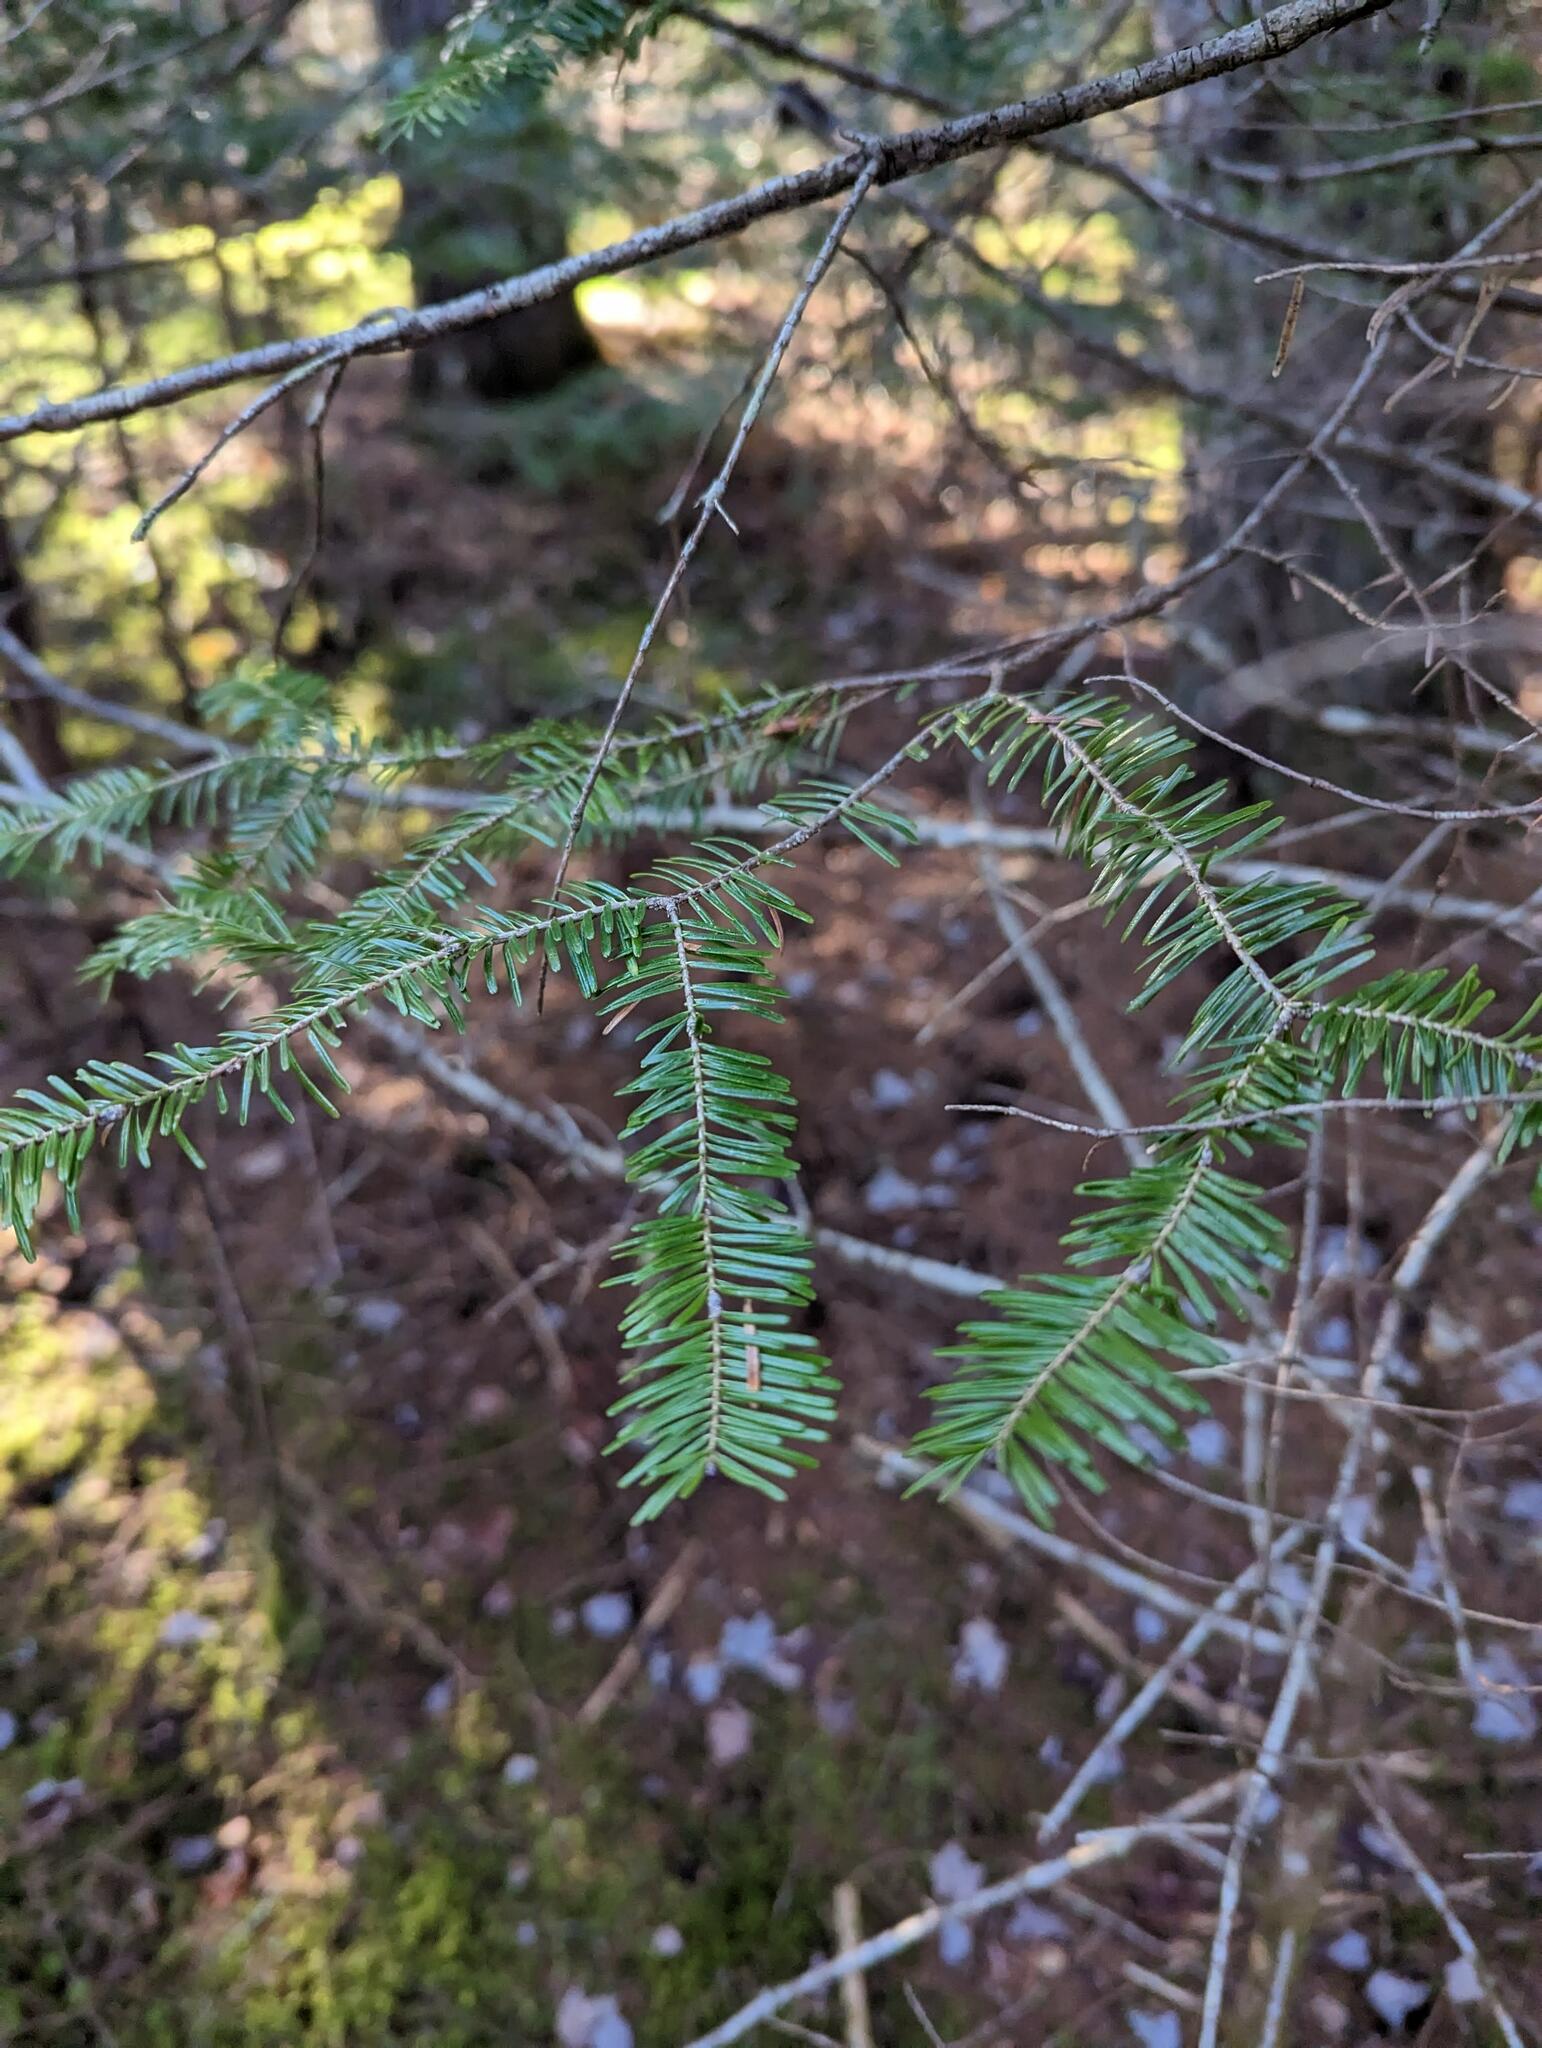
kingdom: Plantae
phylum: Tracheophyta
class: Pinopsida
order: Pinales
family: Pinaceae
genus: Abies
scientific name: Abies balsamea
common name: Balsam fir
